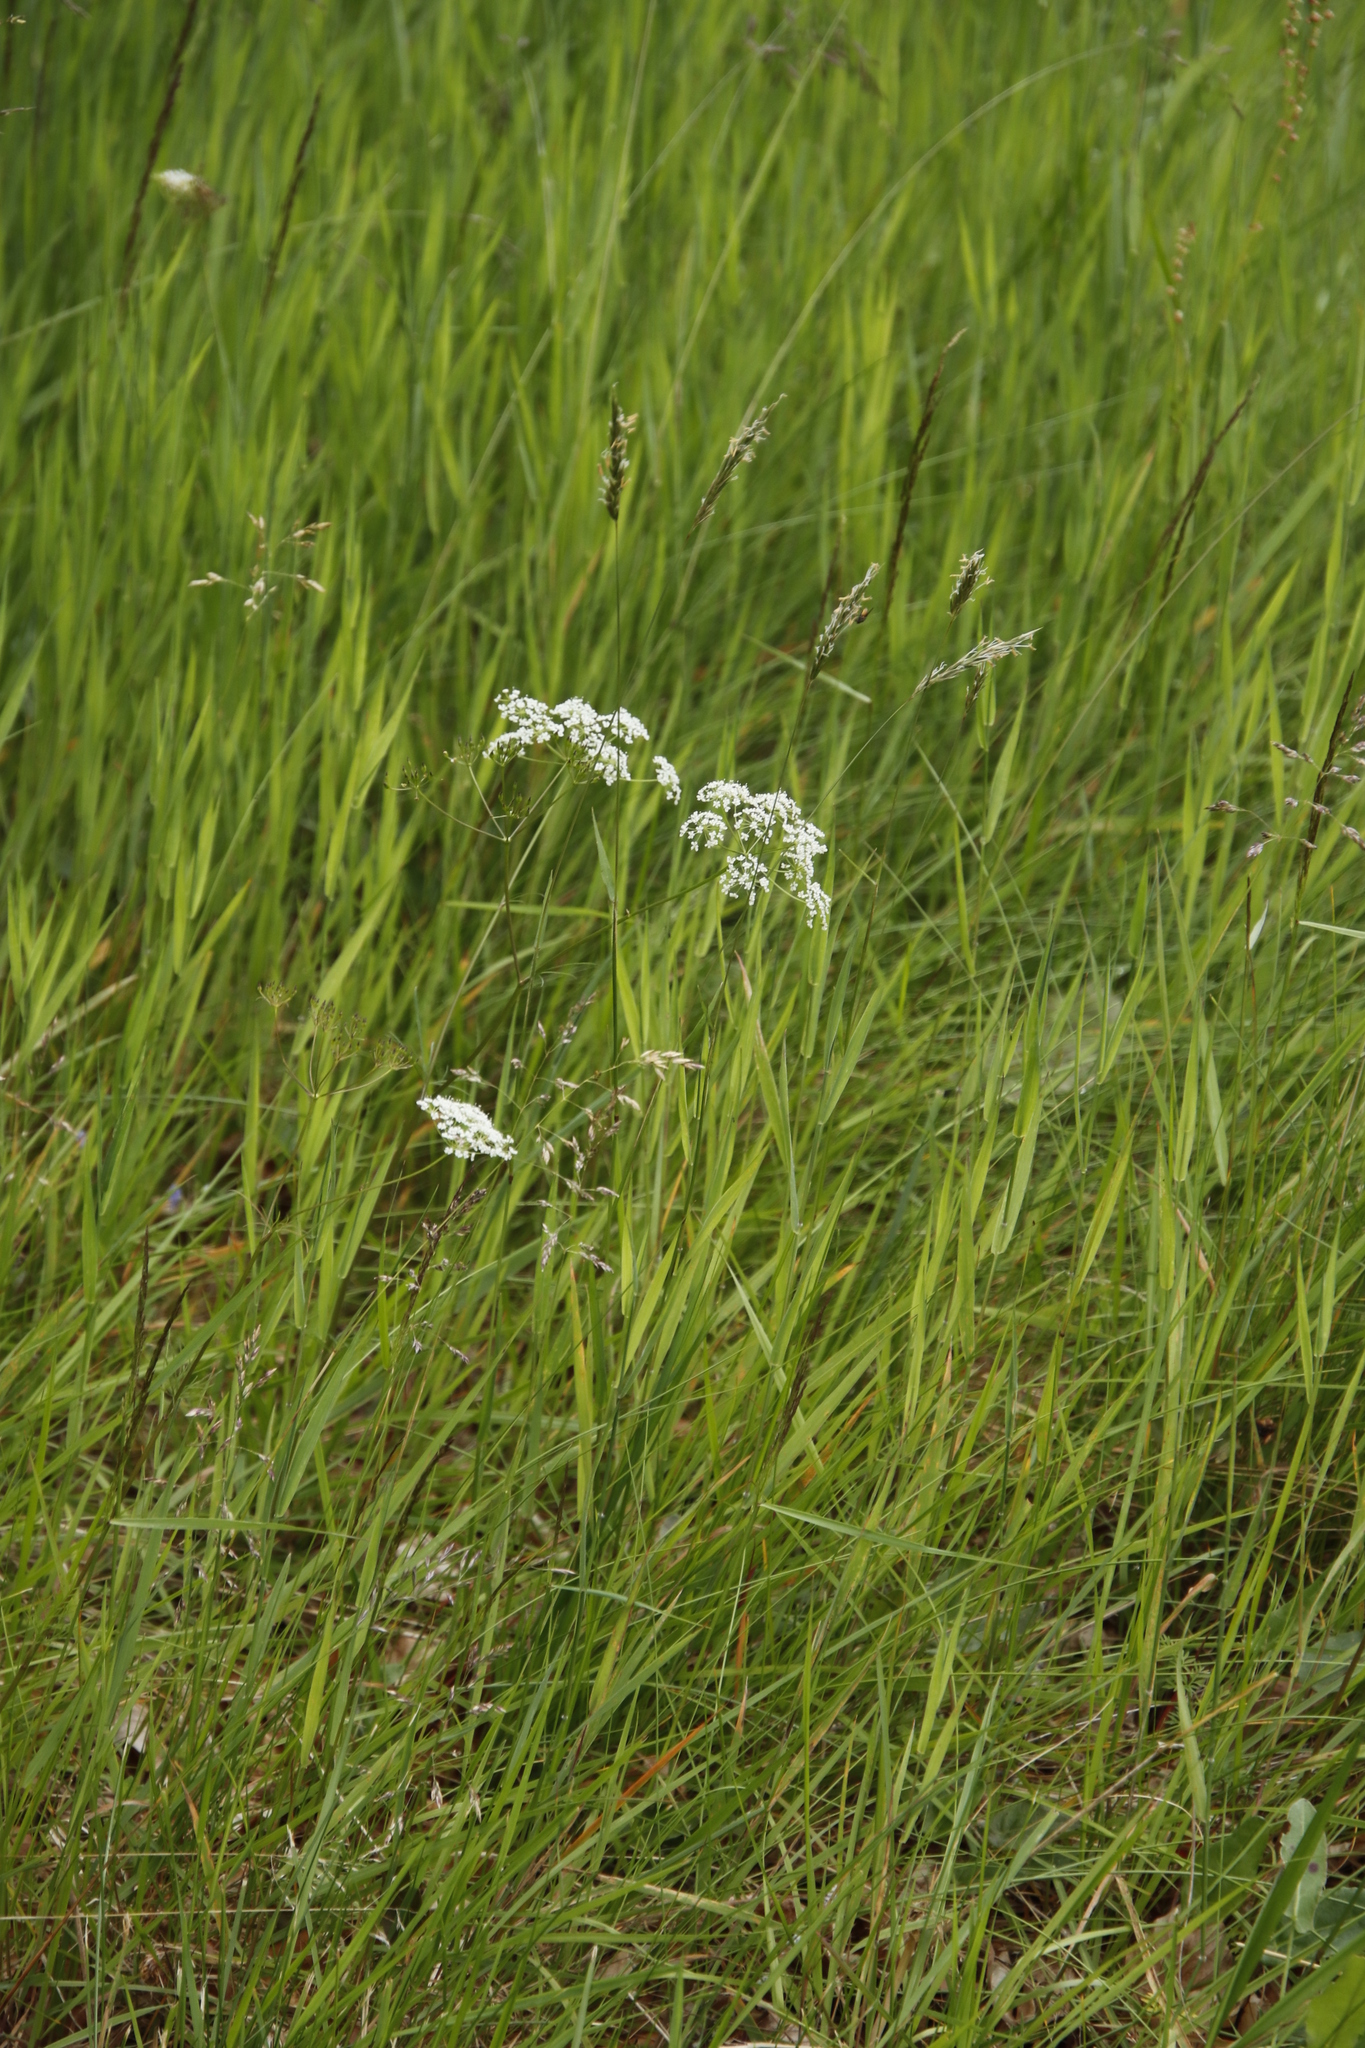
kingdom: Plantae
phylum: Tracheophyta
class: Magnoliopsida
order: Apiales
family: Apiaceae
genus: Conopodium
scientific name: Conopodium majus
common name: Pignut
